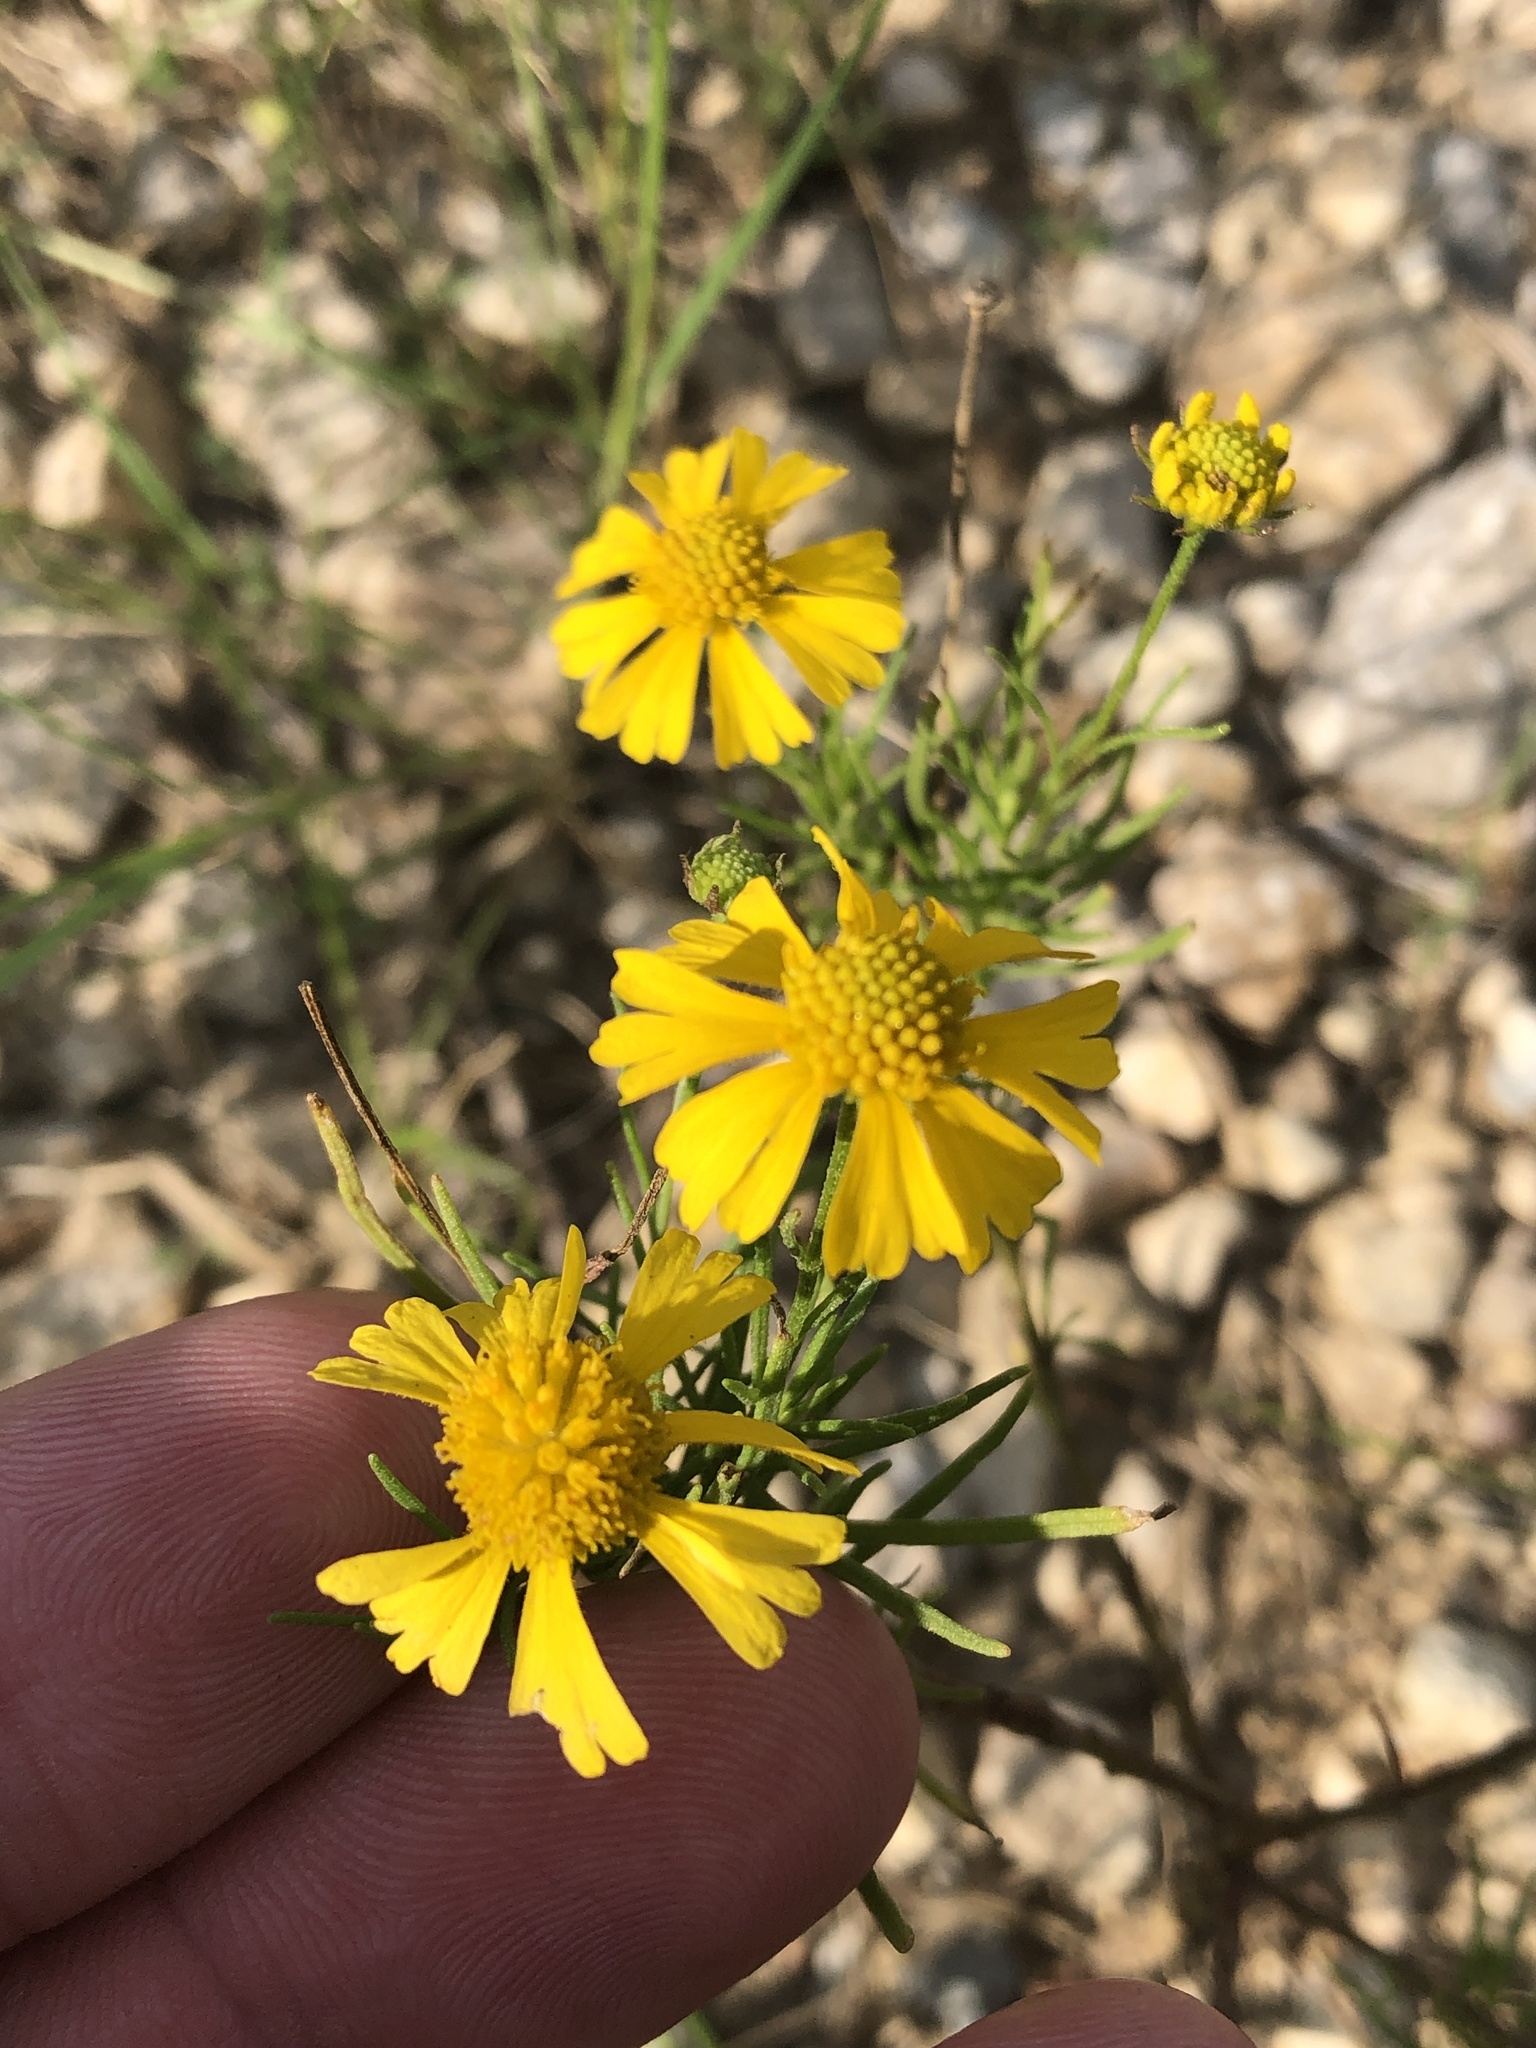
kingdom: Plantae
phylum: Tracheophyta
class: Magnoliopsida
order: Asterales
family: Asteraceae
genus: Helenium
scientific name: Helenium amarum
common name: Bitter sneezeweed
